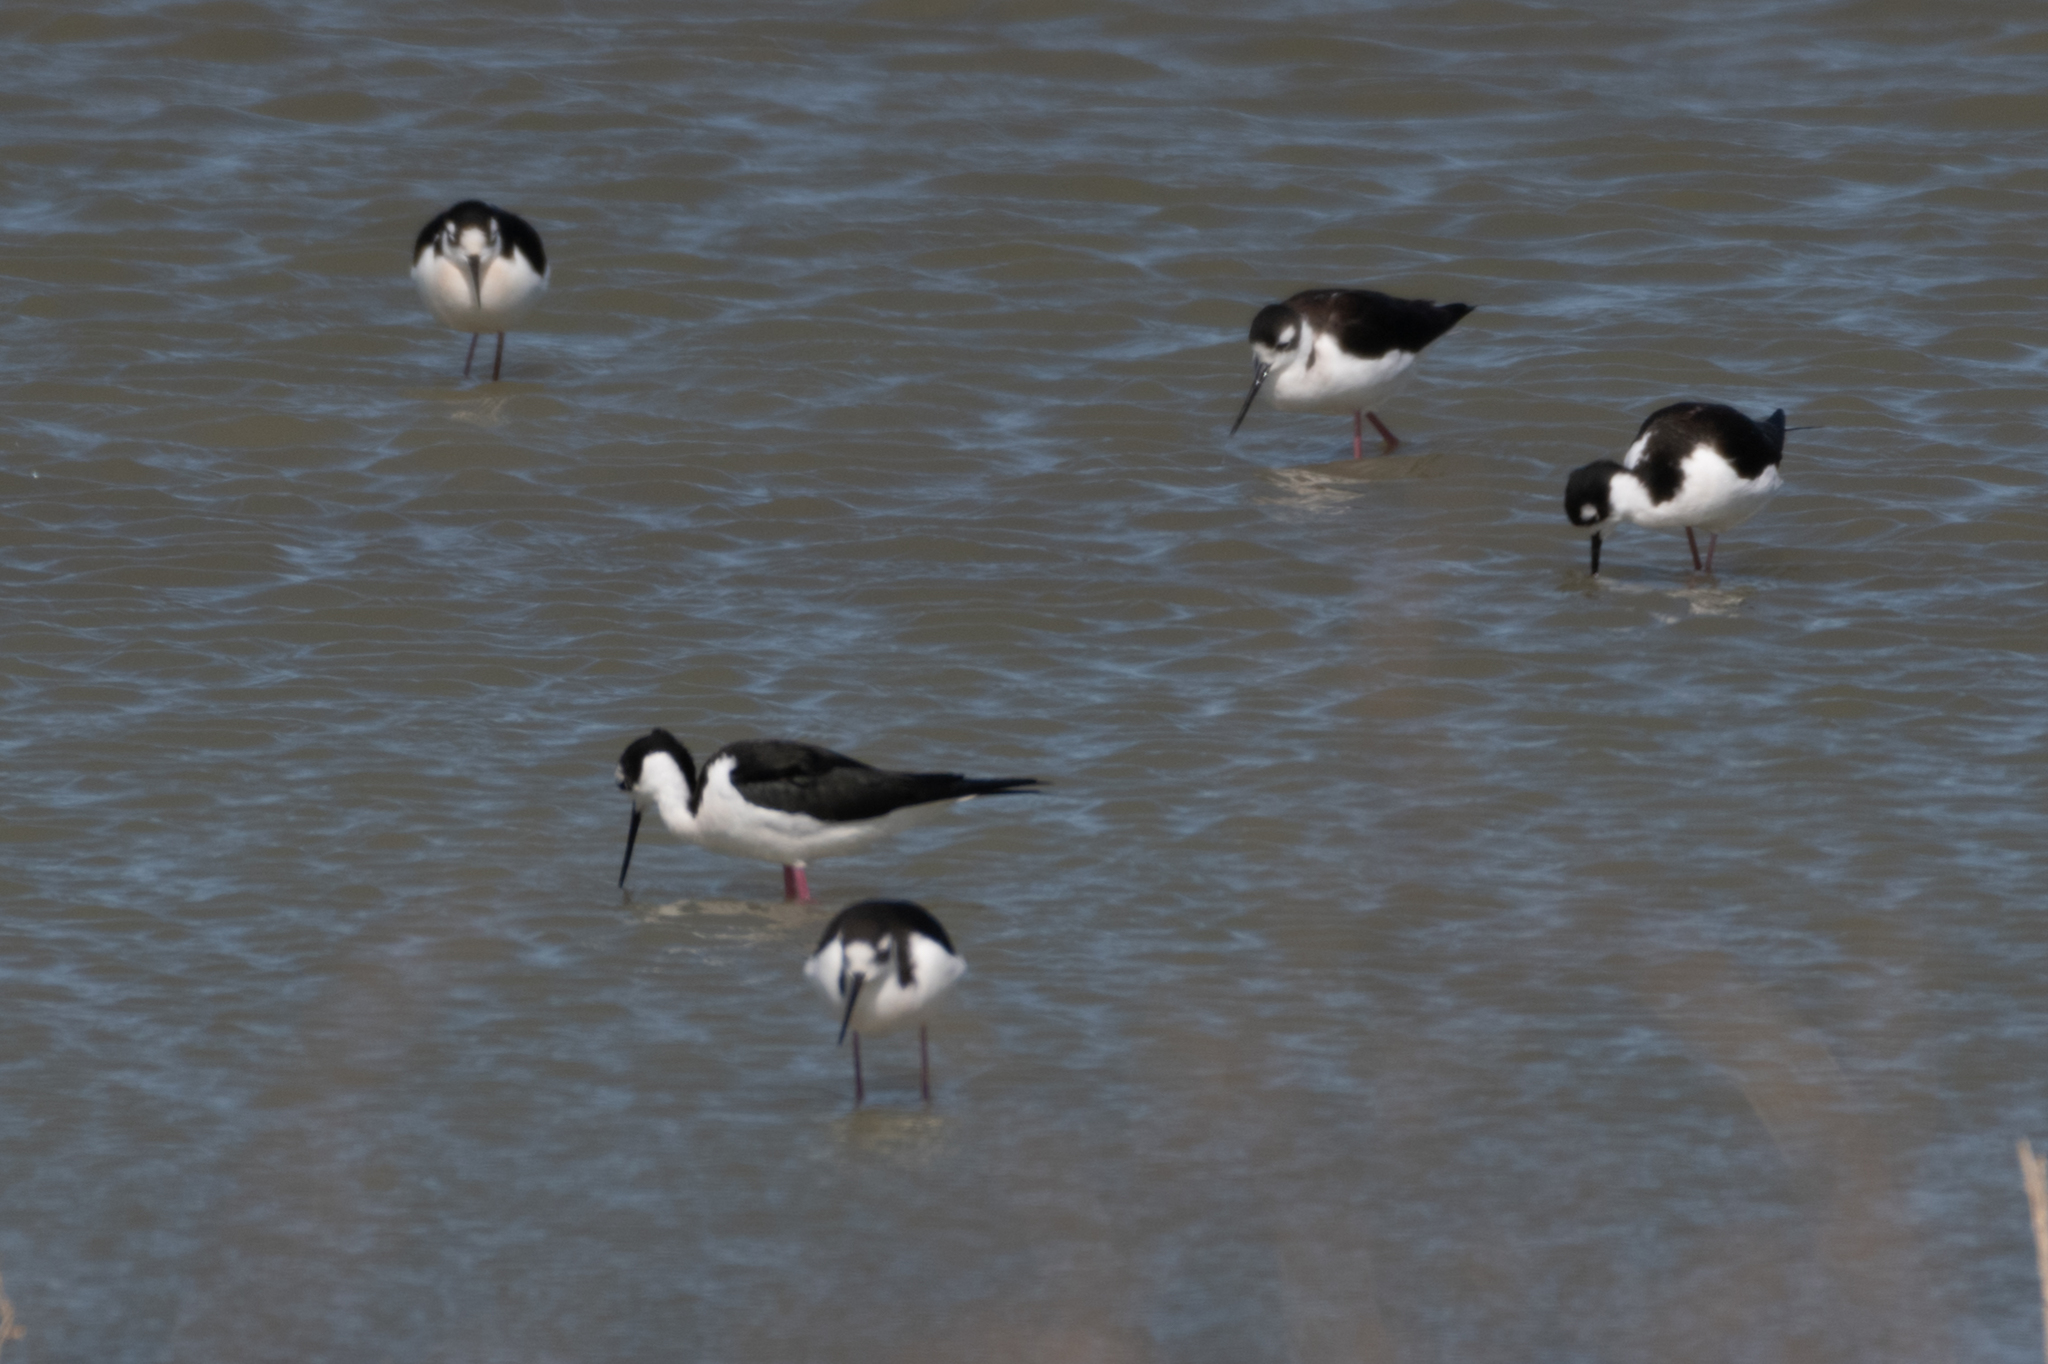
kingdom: Animalia
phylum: Chordata
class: Aves
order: Charadriiformes
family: Recurvirostridae
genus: Himantopus
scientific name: Himantopus mexicanus
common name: Black-necked stilt
